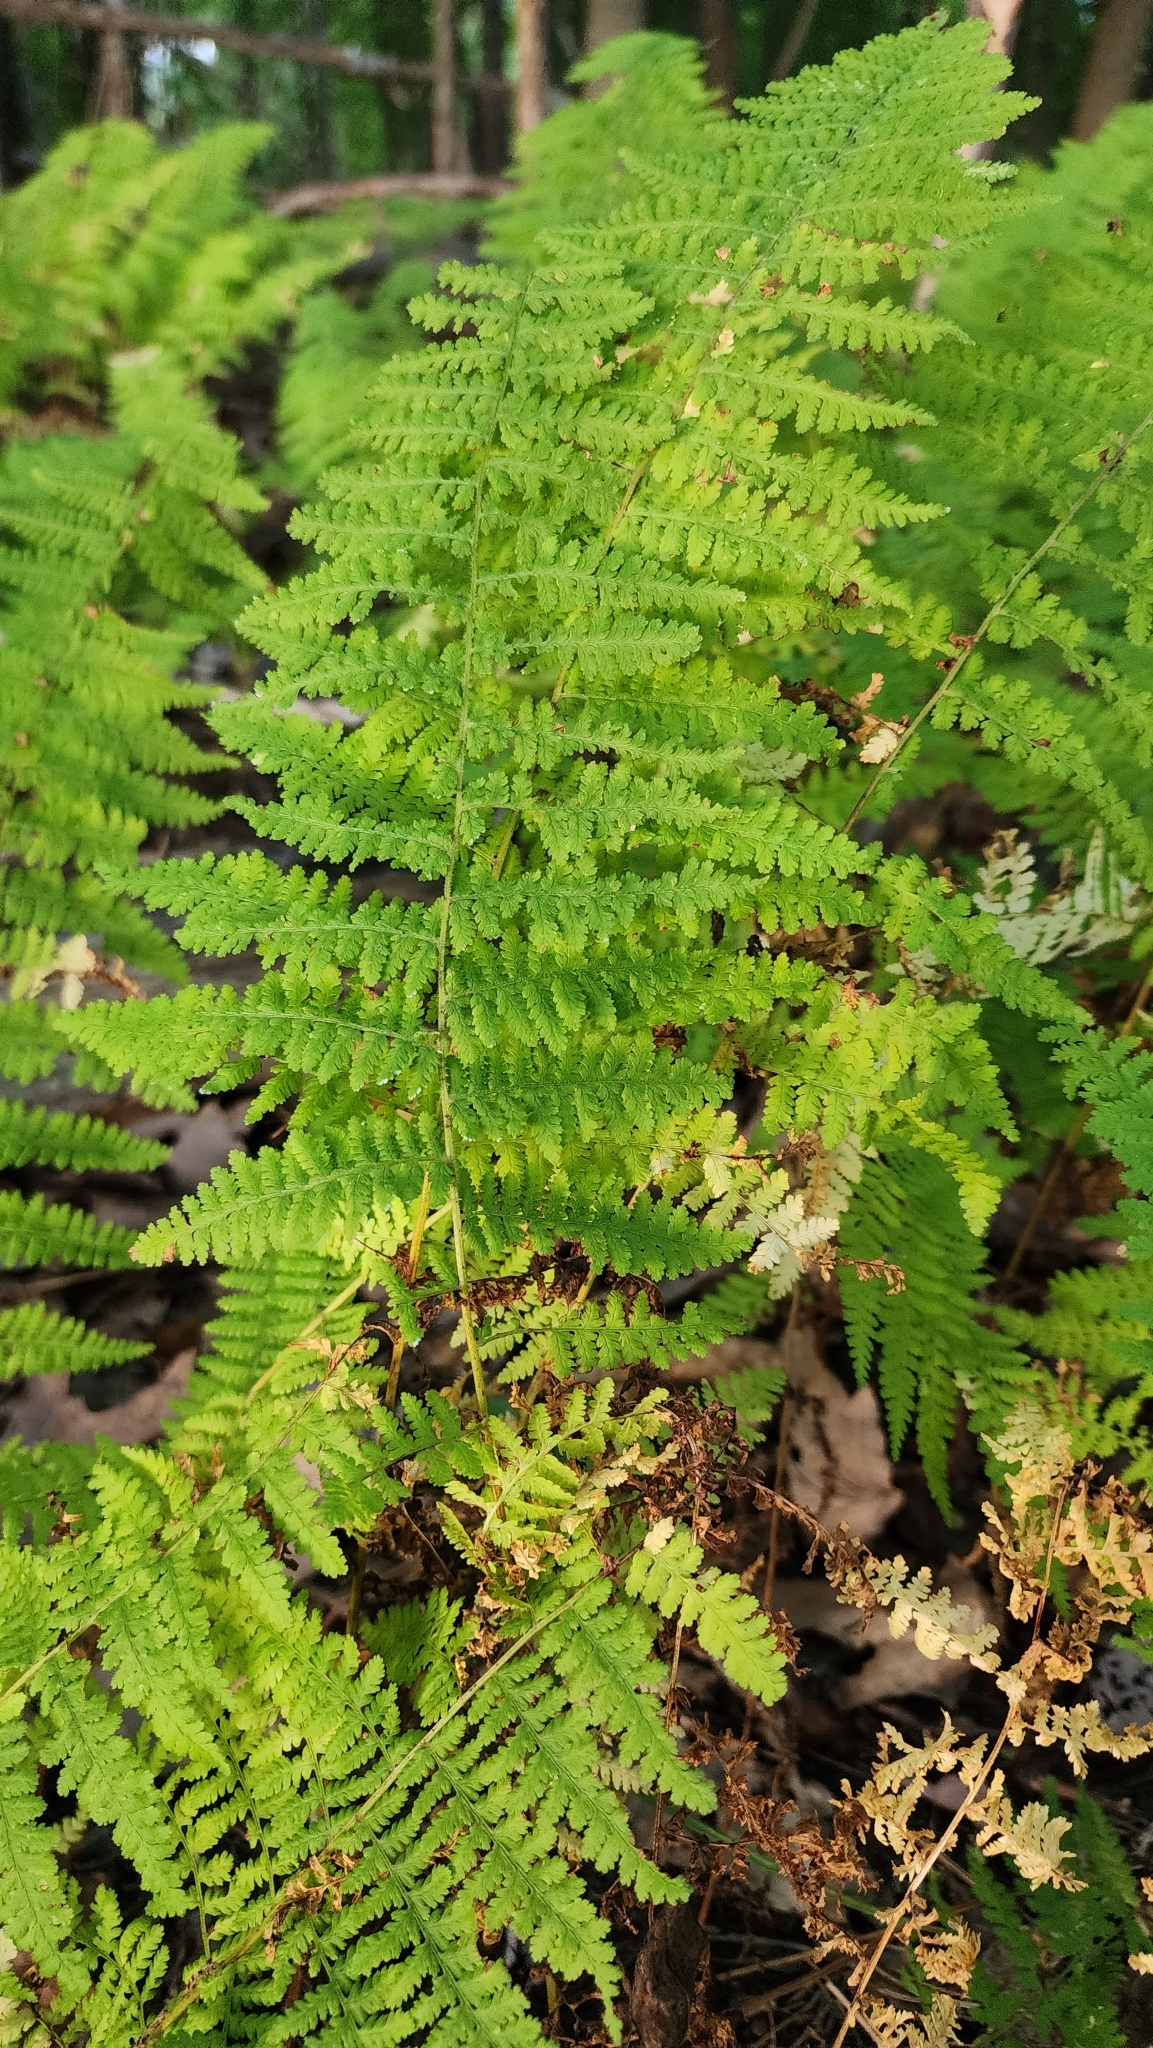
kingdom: Plantae
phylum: Tracheophyta
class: Polypodiopsida
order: Polypodiales
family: Dennstaedtiaceae
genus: Sitobolium
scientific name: Sitobolium punctilobum
